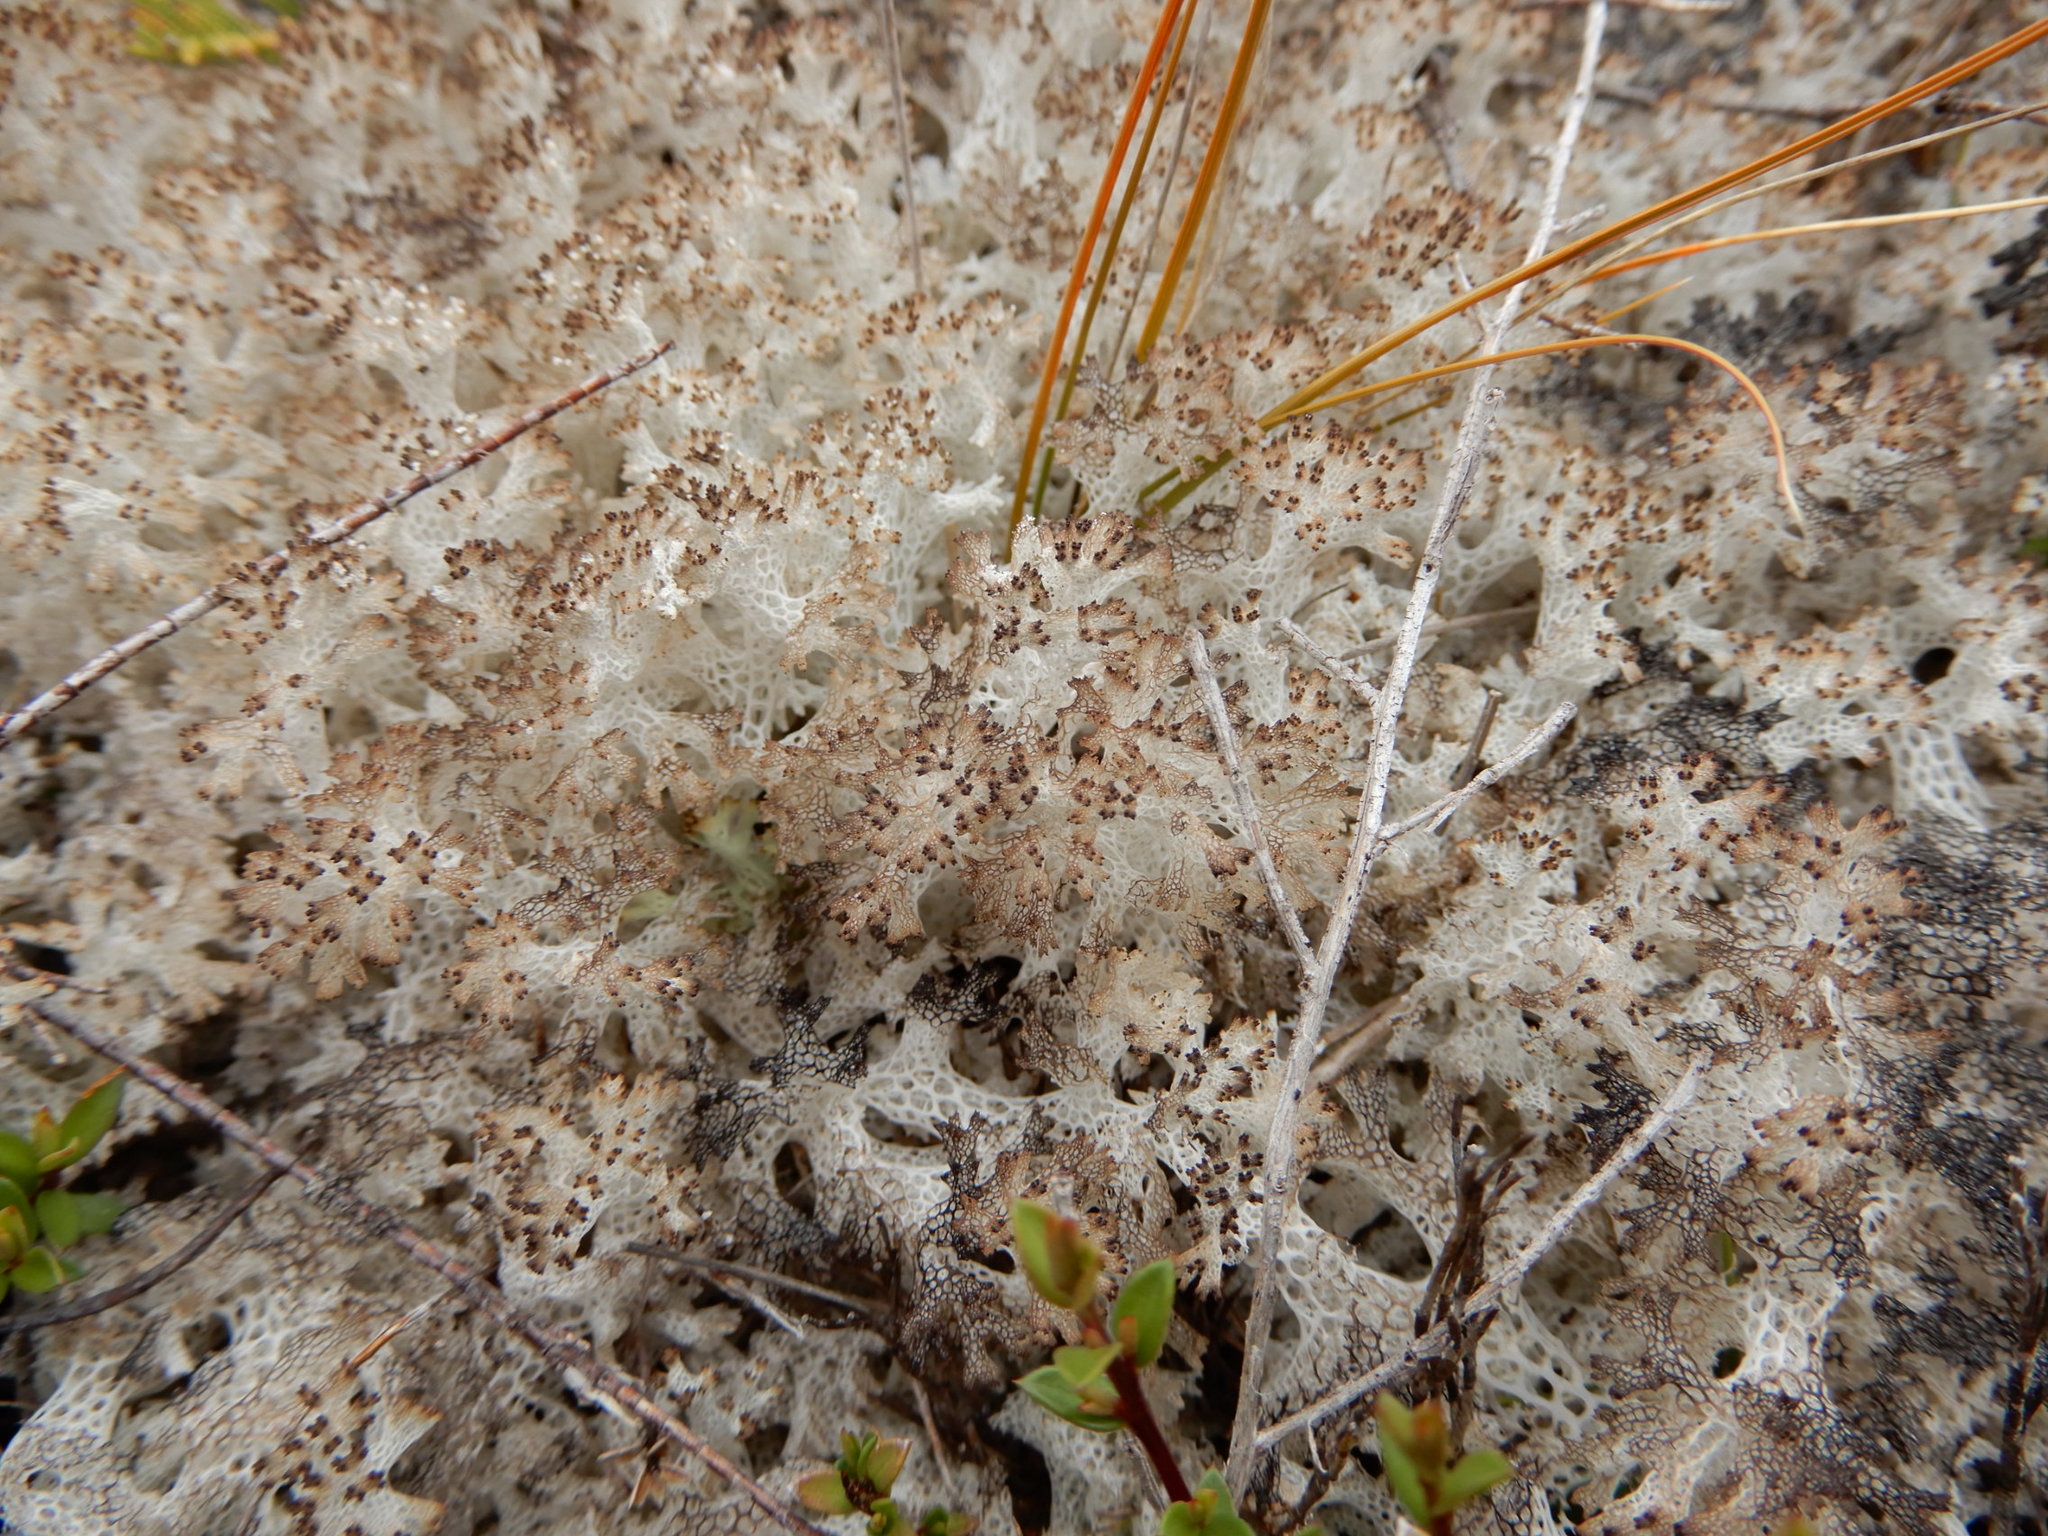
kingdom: Fungi
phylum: Ascomycota
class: Lecanoromycetes
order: Lecanorales
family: Cladoniaceae
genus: Pulchrocladia
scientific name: Pulchrocladia retipora
